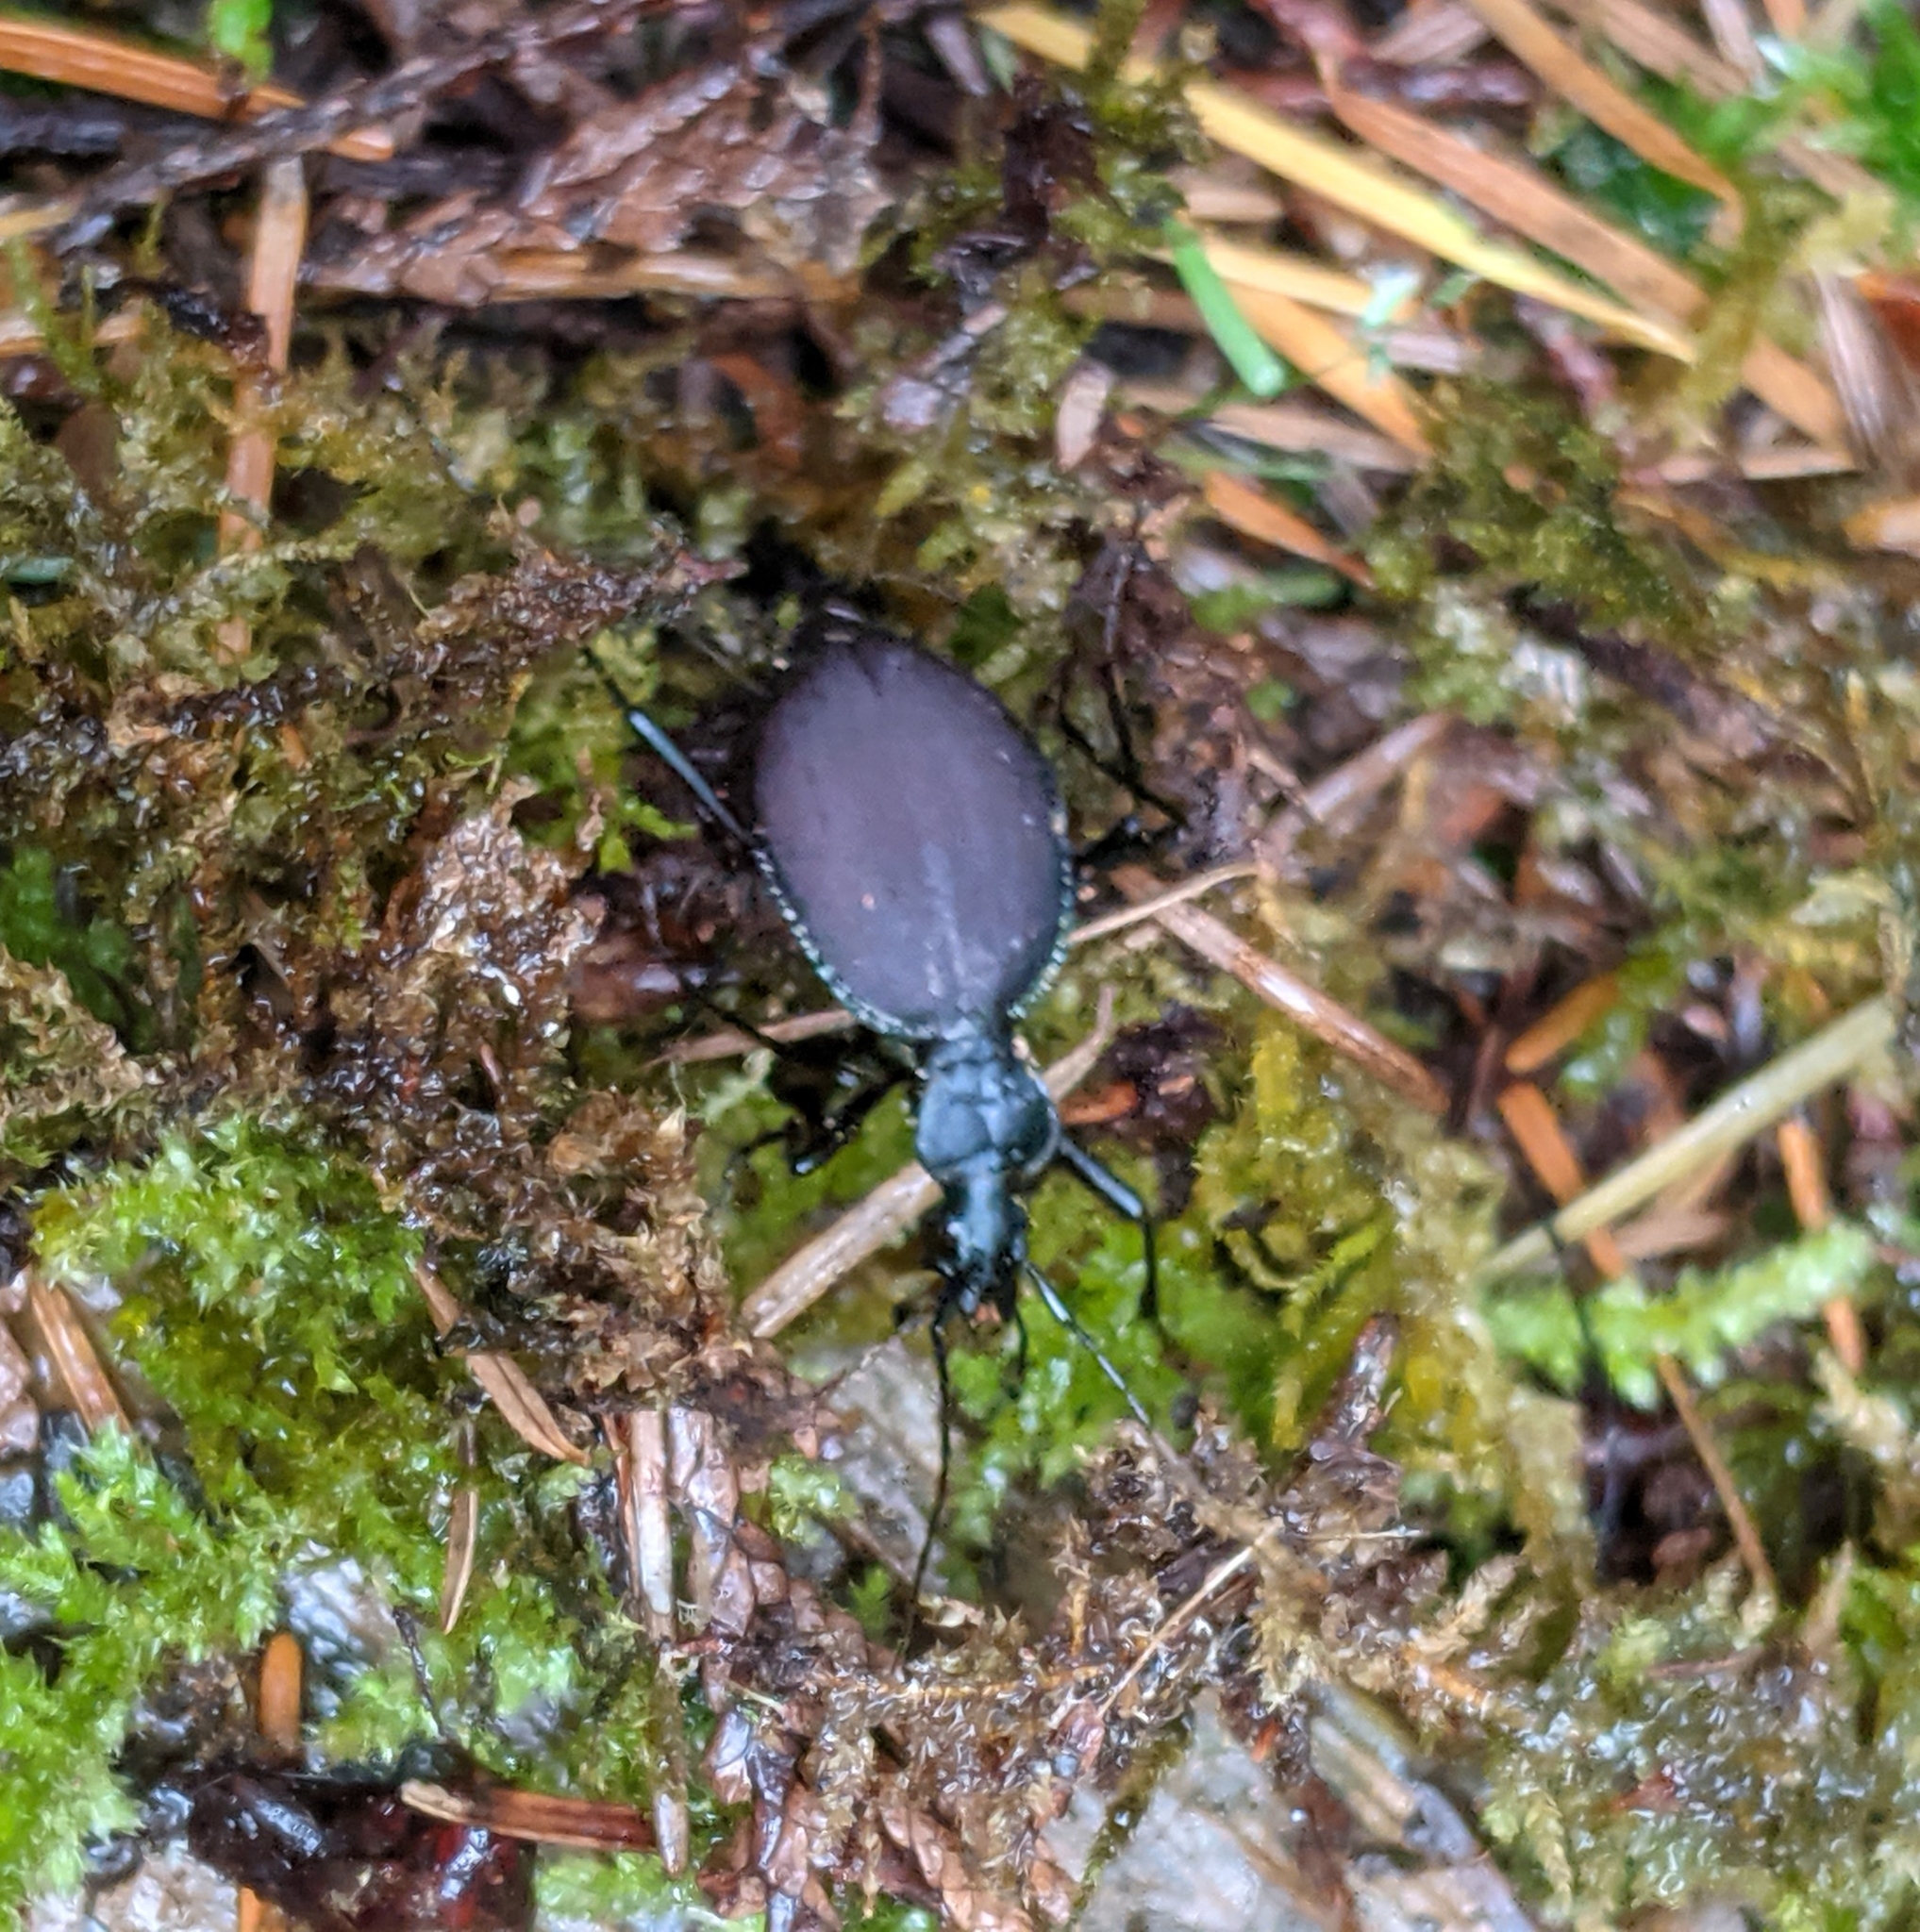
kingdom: Animalia
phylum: Arthropoda
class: Insecta
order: Coleoptera
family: Carabidae
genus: Scaphinotus
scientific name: Scaphinotus angusticollis
